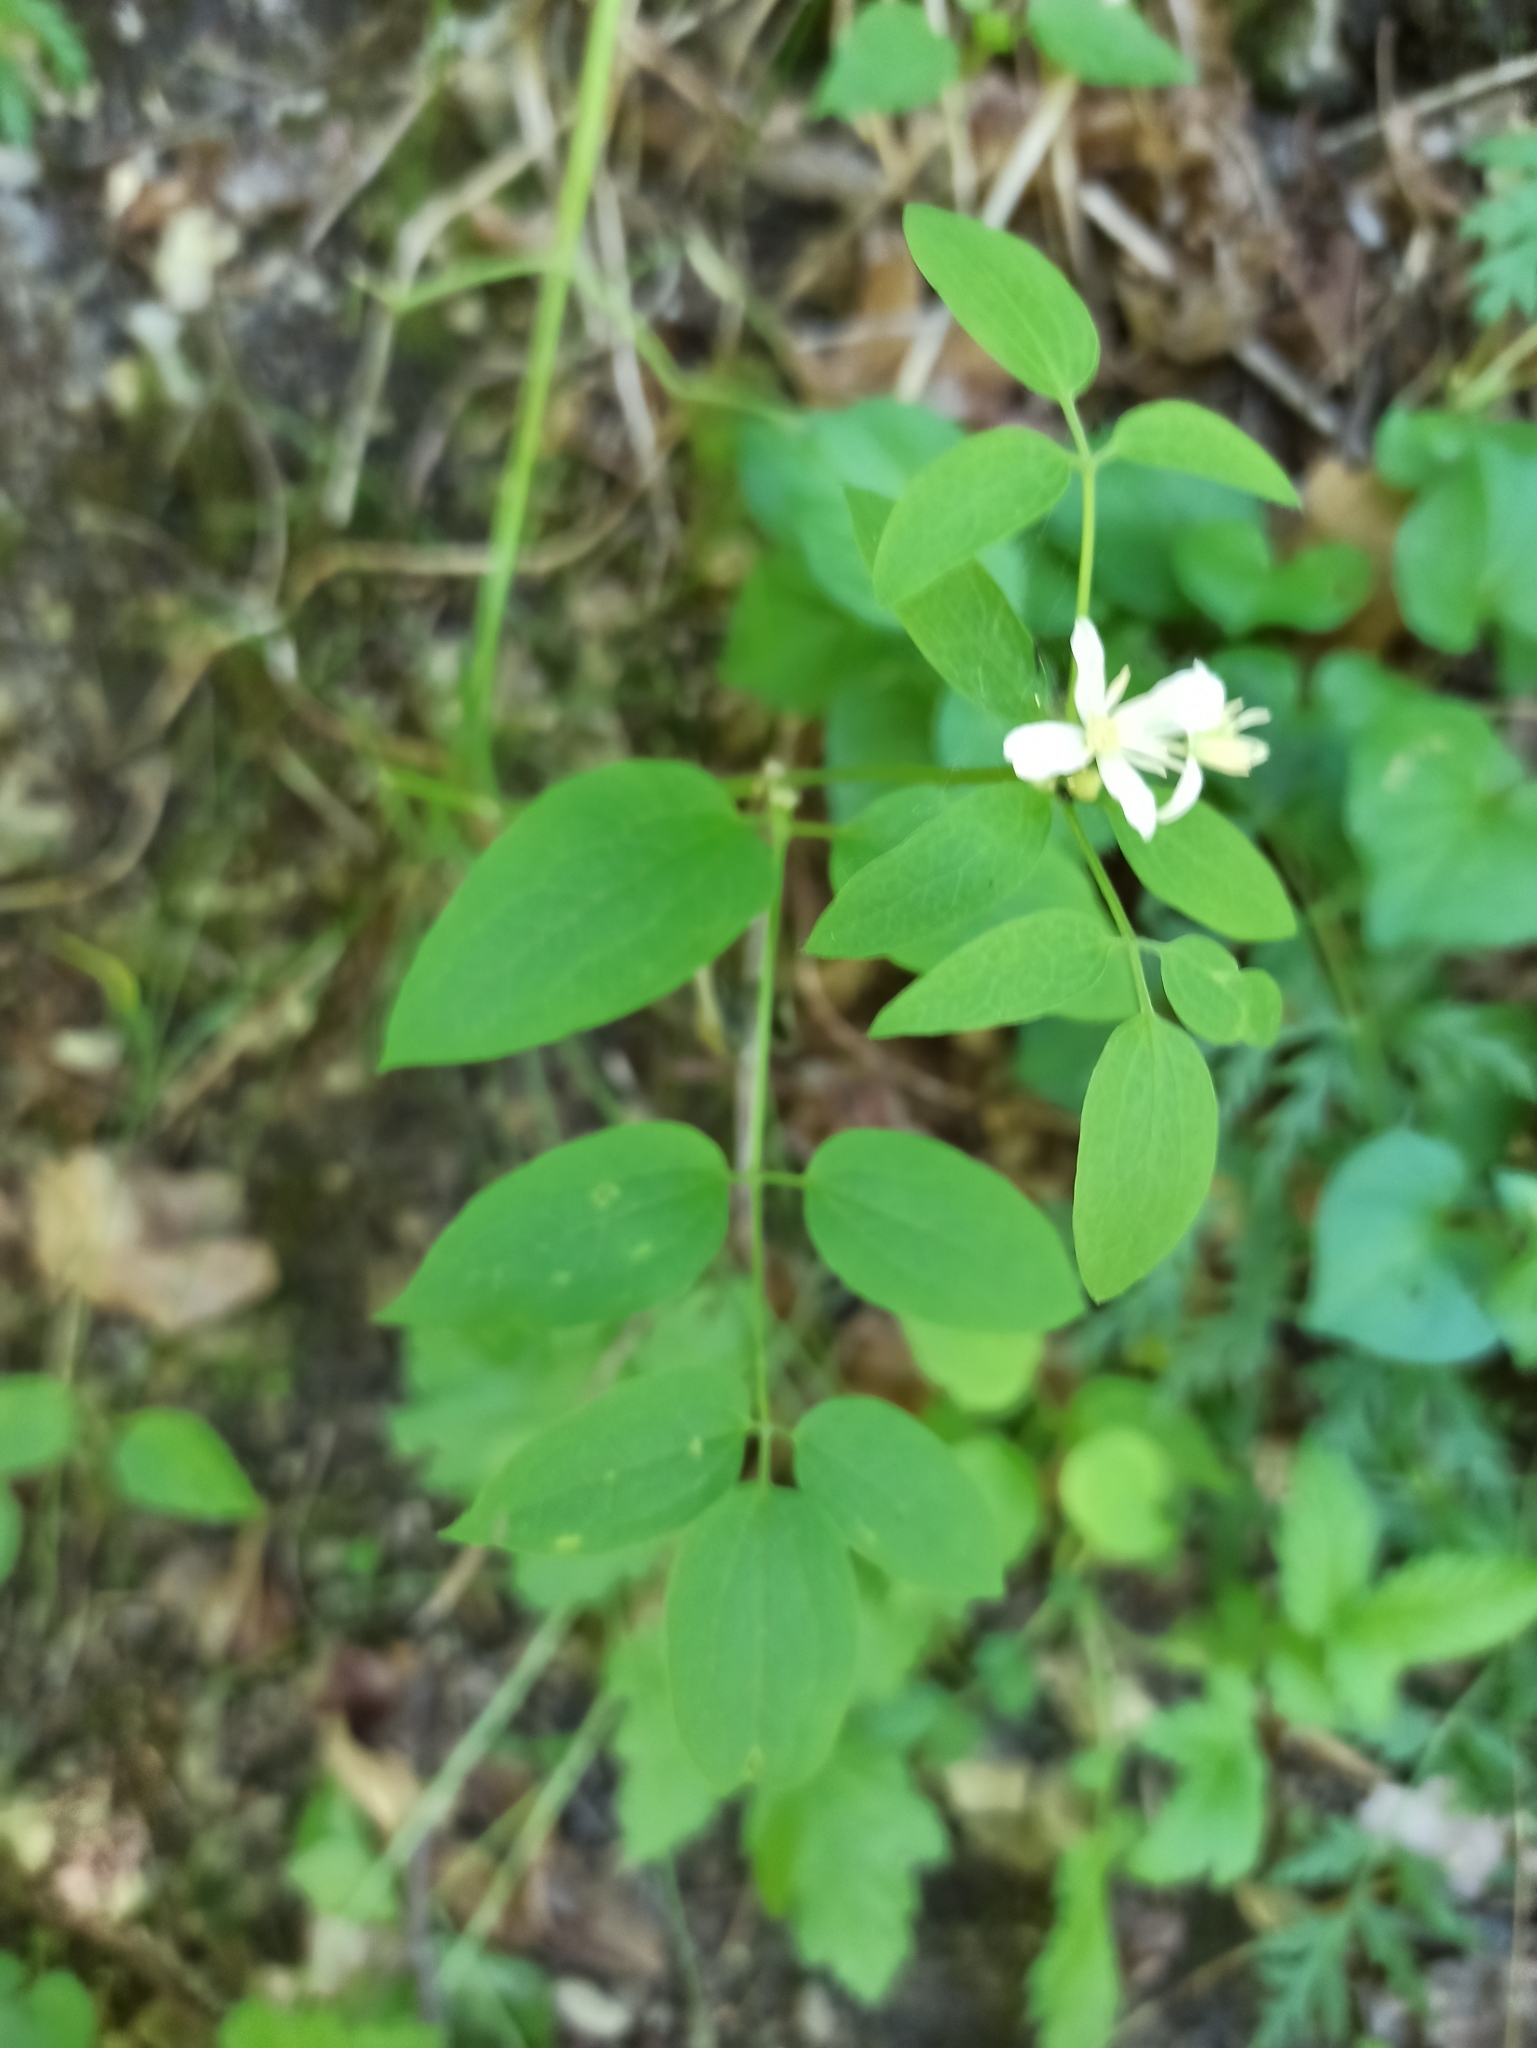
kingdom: Plantae
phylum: Tracheophyta
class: Magnoliopsida
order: Ranunculales
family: Ranunculaceae
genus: Clematis
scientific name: Clematis recta
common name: Ground clematis
